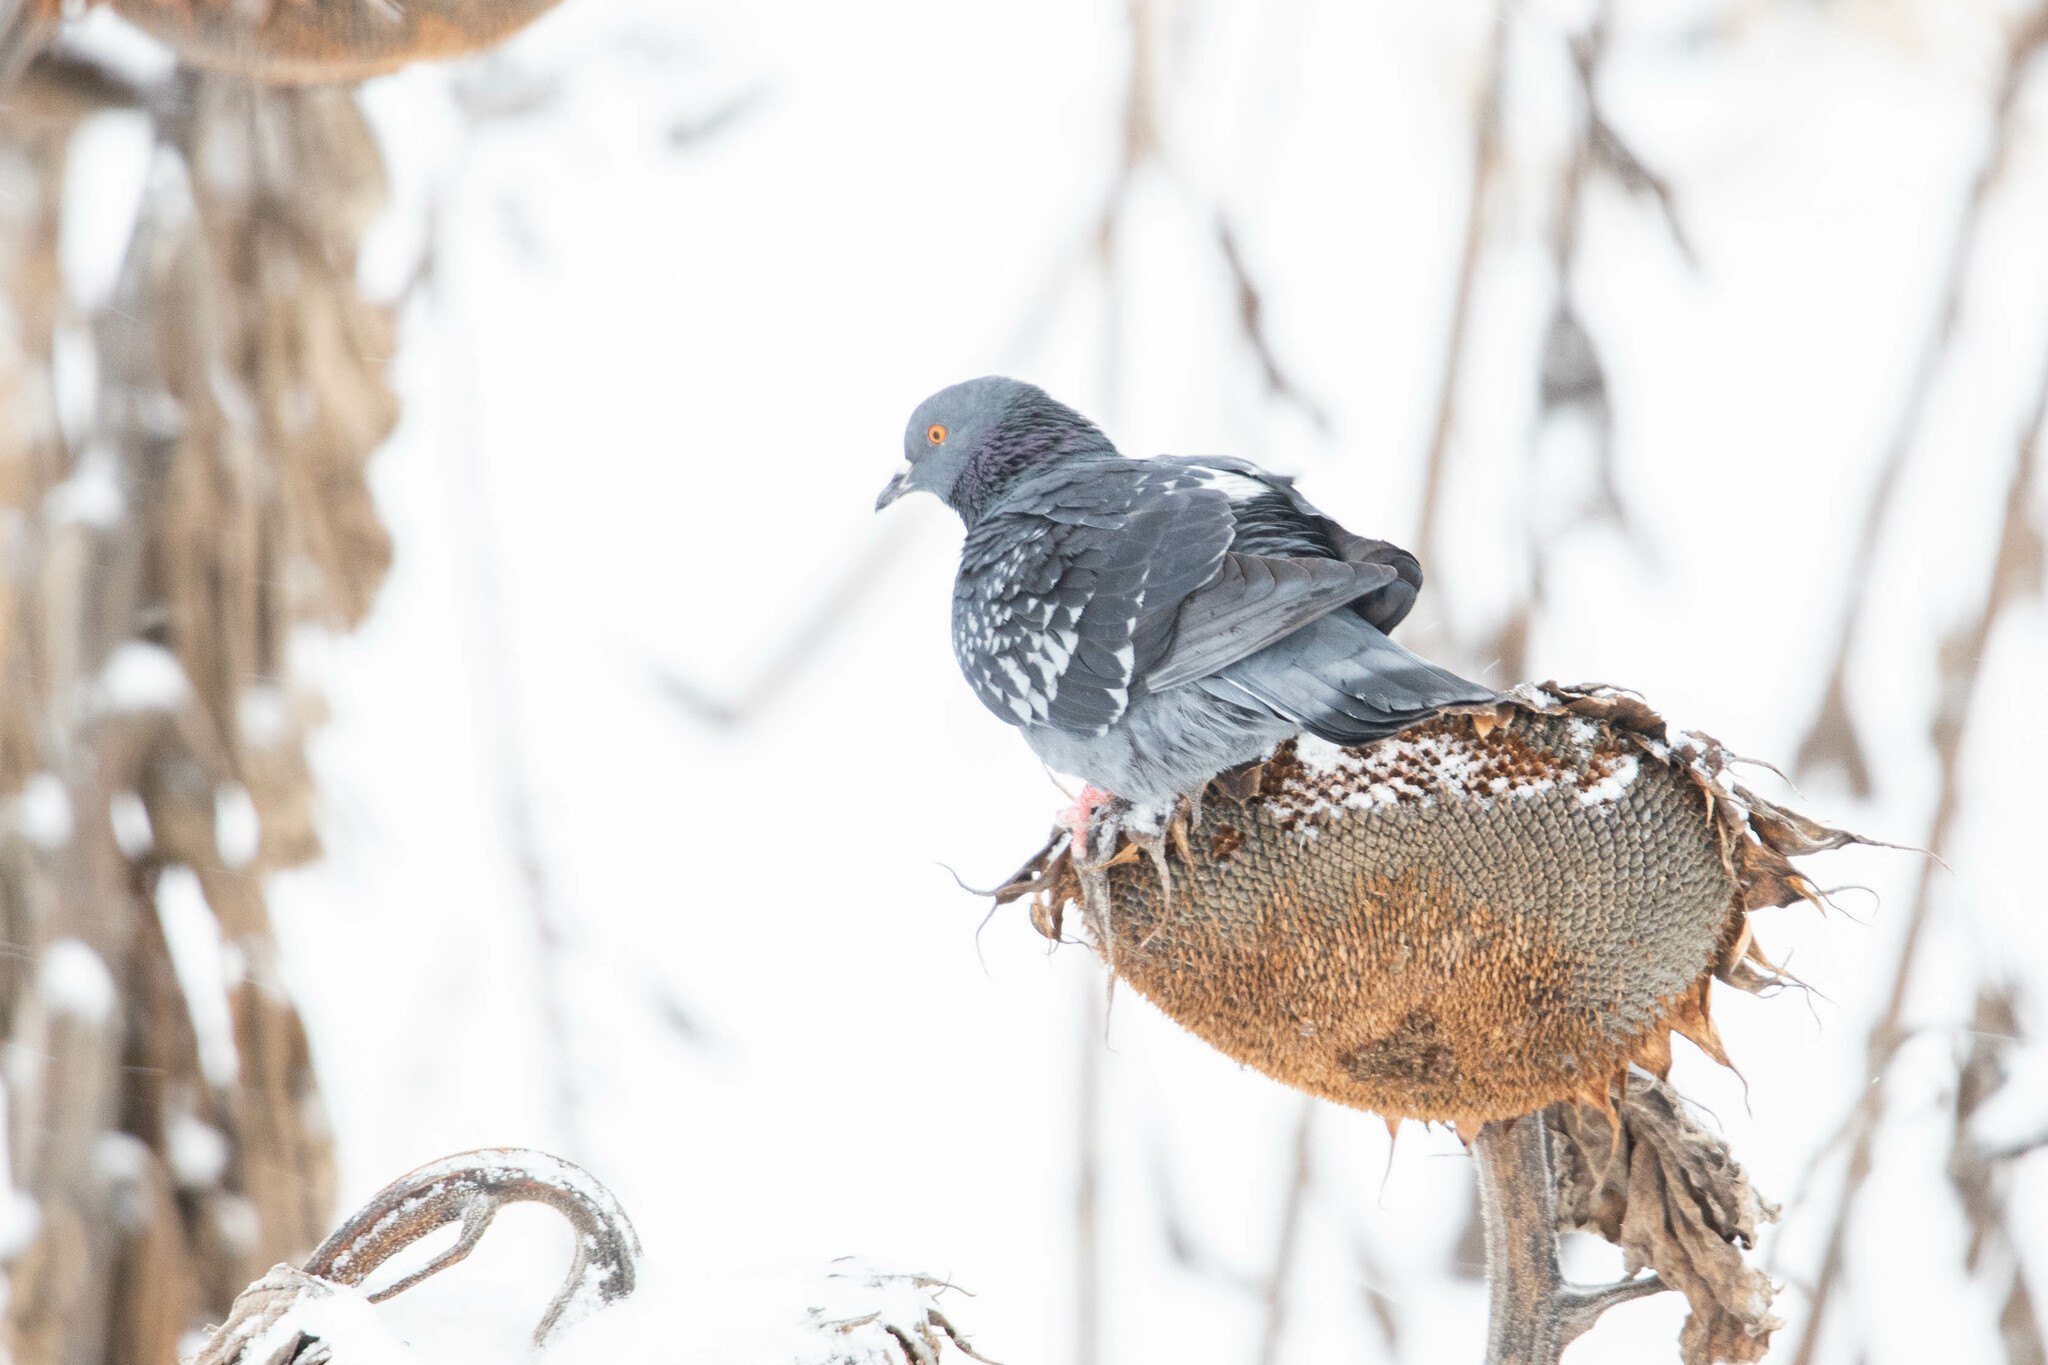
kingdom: Animalia
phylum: Chordata
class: Aves
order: Columbiformes
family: Columbidae
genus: Columba
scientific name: Columba livia
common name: Rock pigeon
